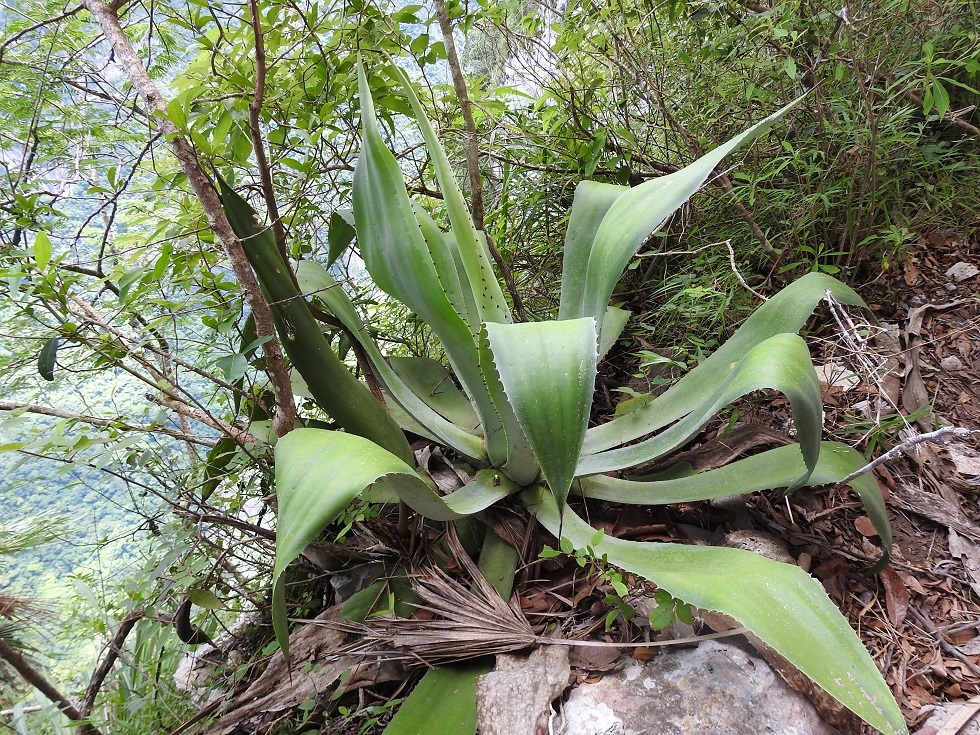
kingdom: Plantae
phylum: Tracheophyta
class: Liliopsida
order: Asparagales
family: Asparagaceae
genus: Agave
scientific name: Agave kewensis
